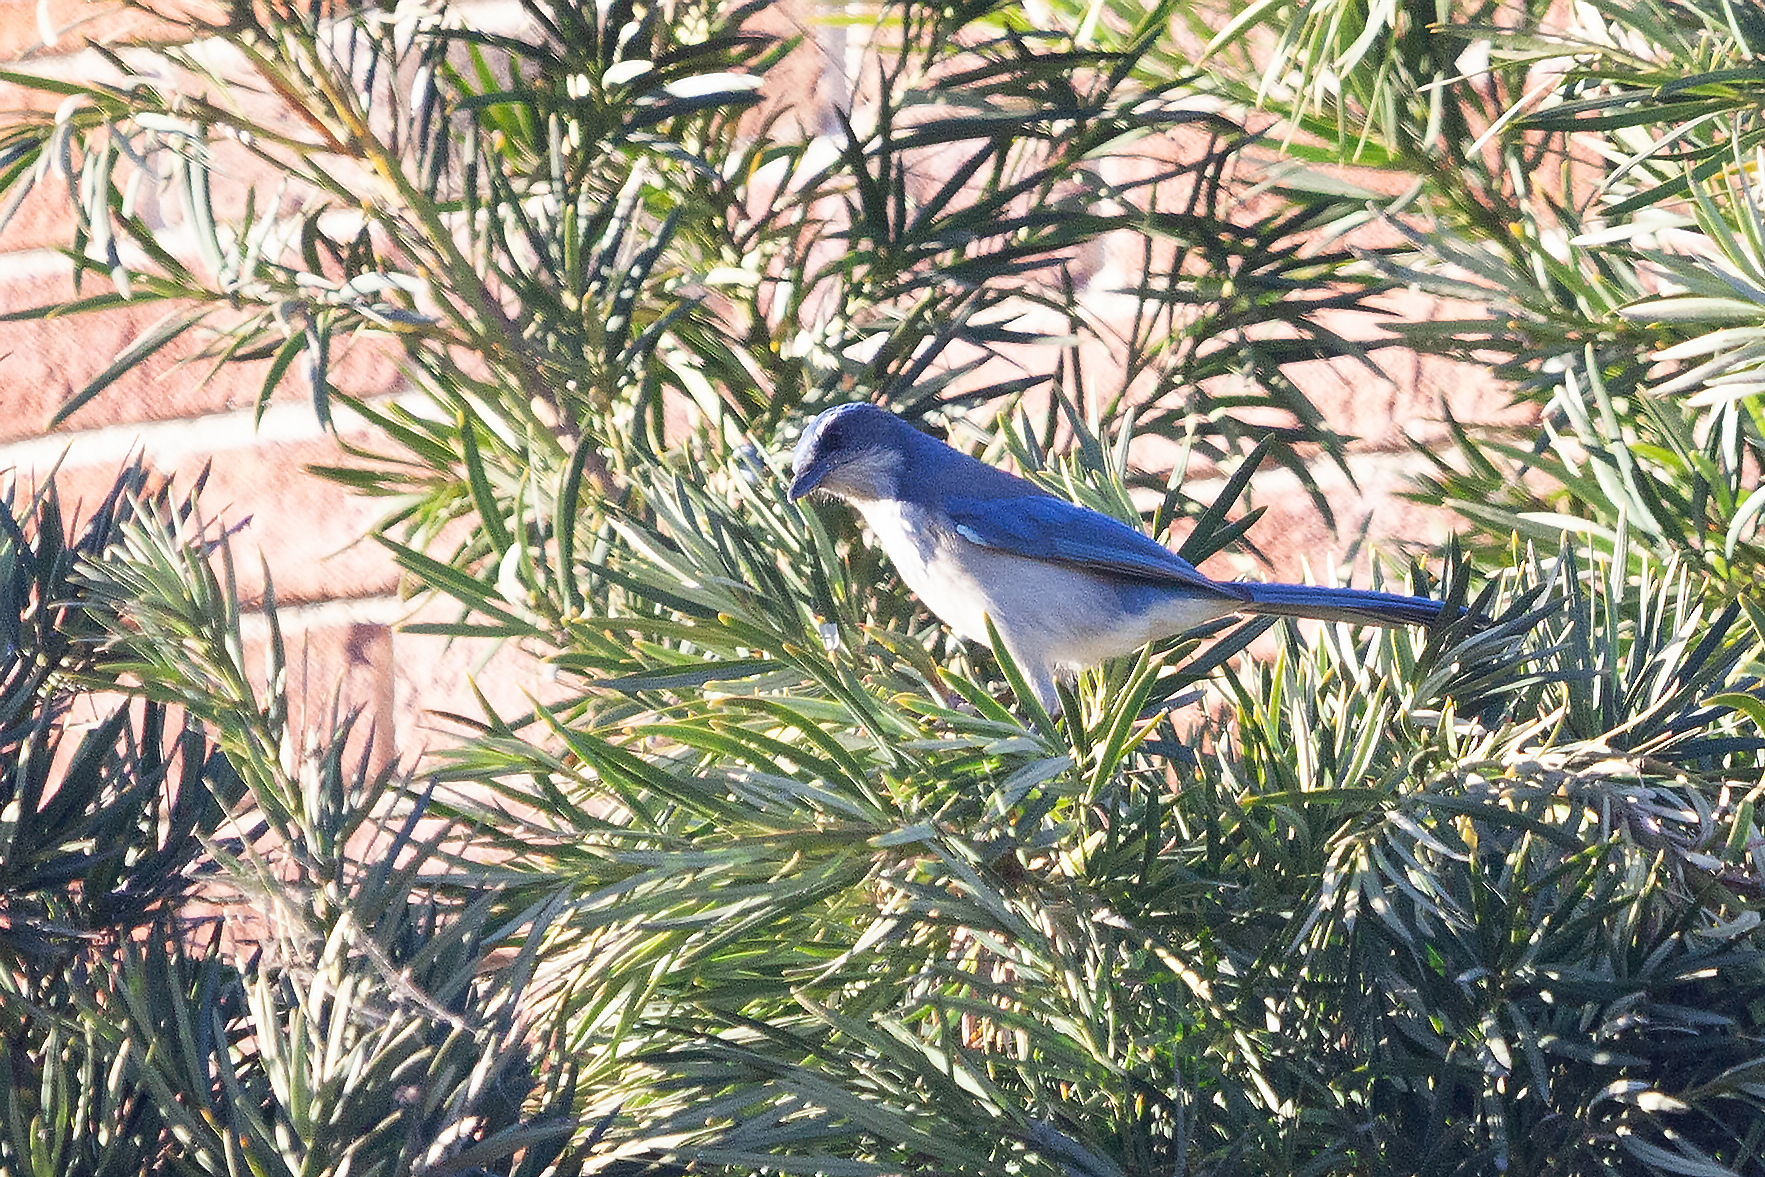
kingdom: Animalia
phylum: Chordata
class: Aves
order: Passeriformes
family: Corvidae
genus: Aphelocoma
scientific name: Aphelocoma californica
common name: California scrub-jay
